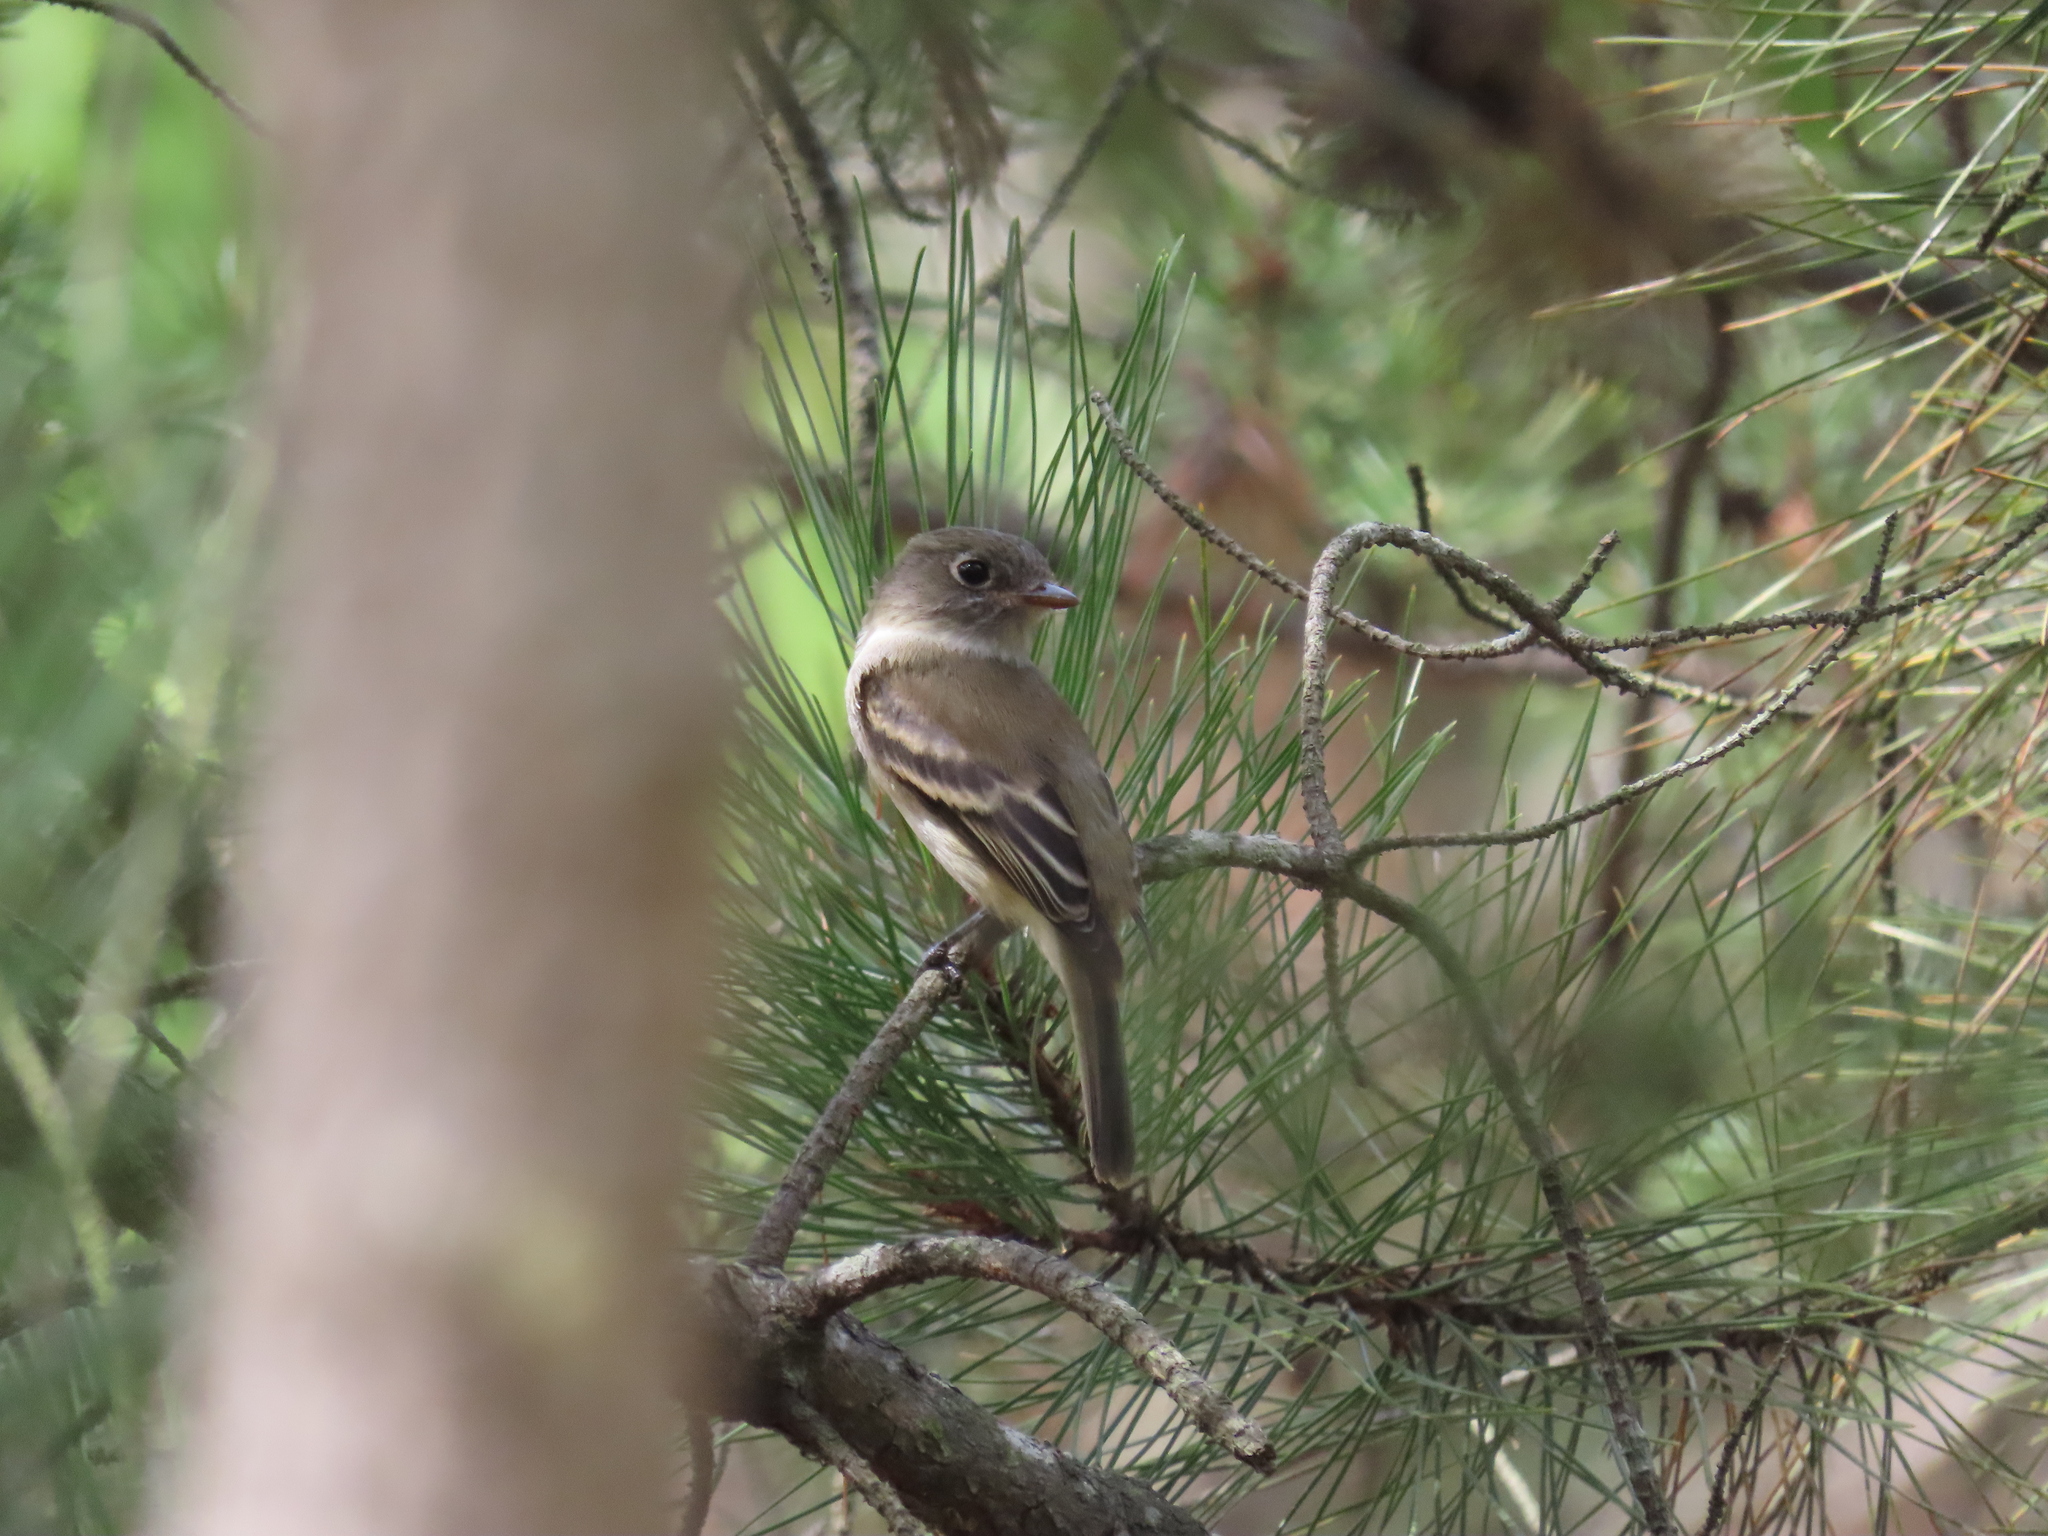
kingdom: Animalia
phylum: Chordata
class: Aves
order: Passeriformes
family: Tyrannidae
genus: Empidonax
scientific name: Empidonax minimus
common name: Least flycatcher
